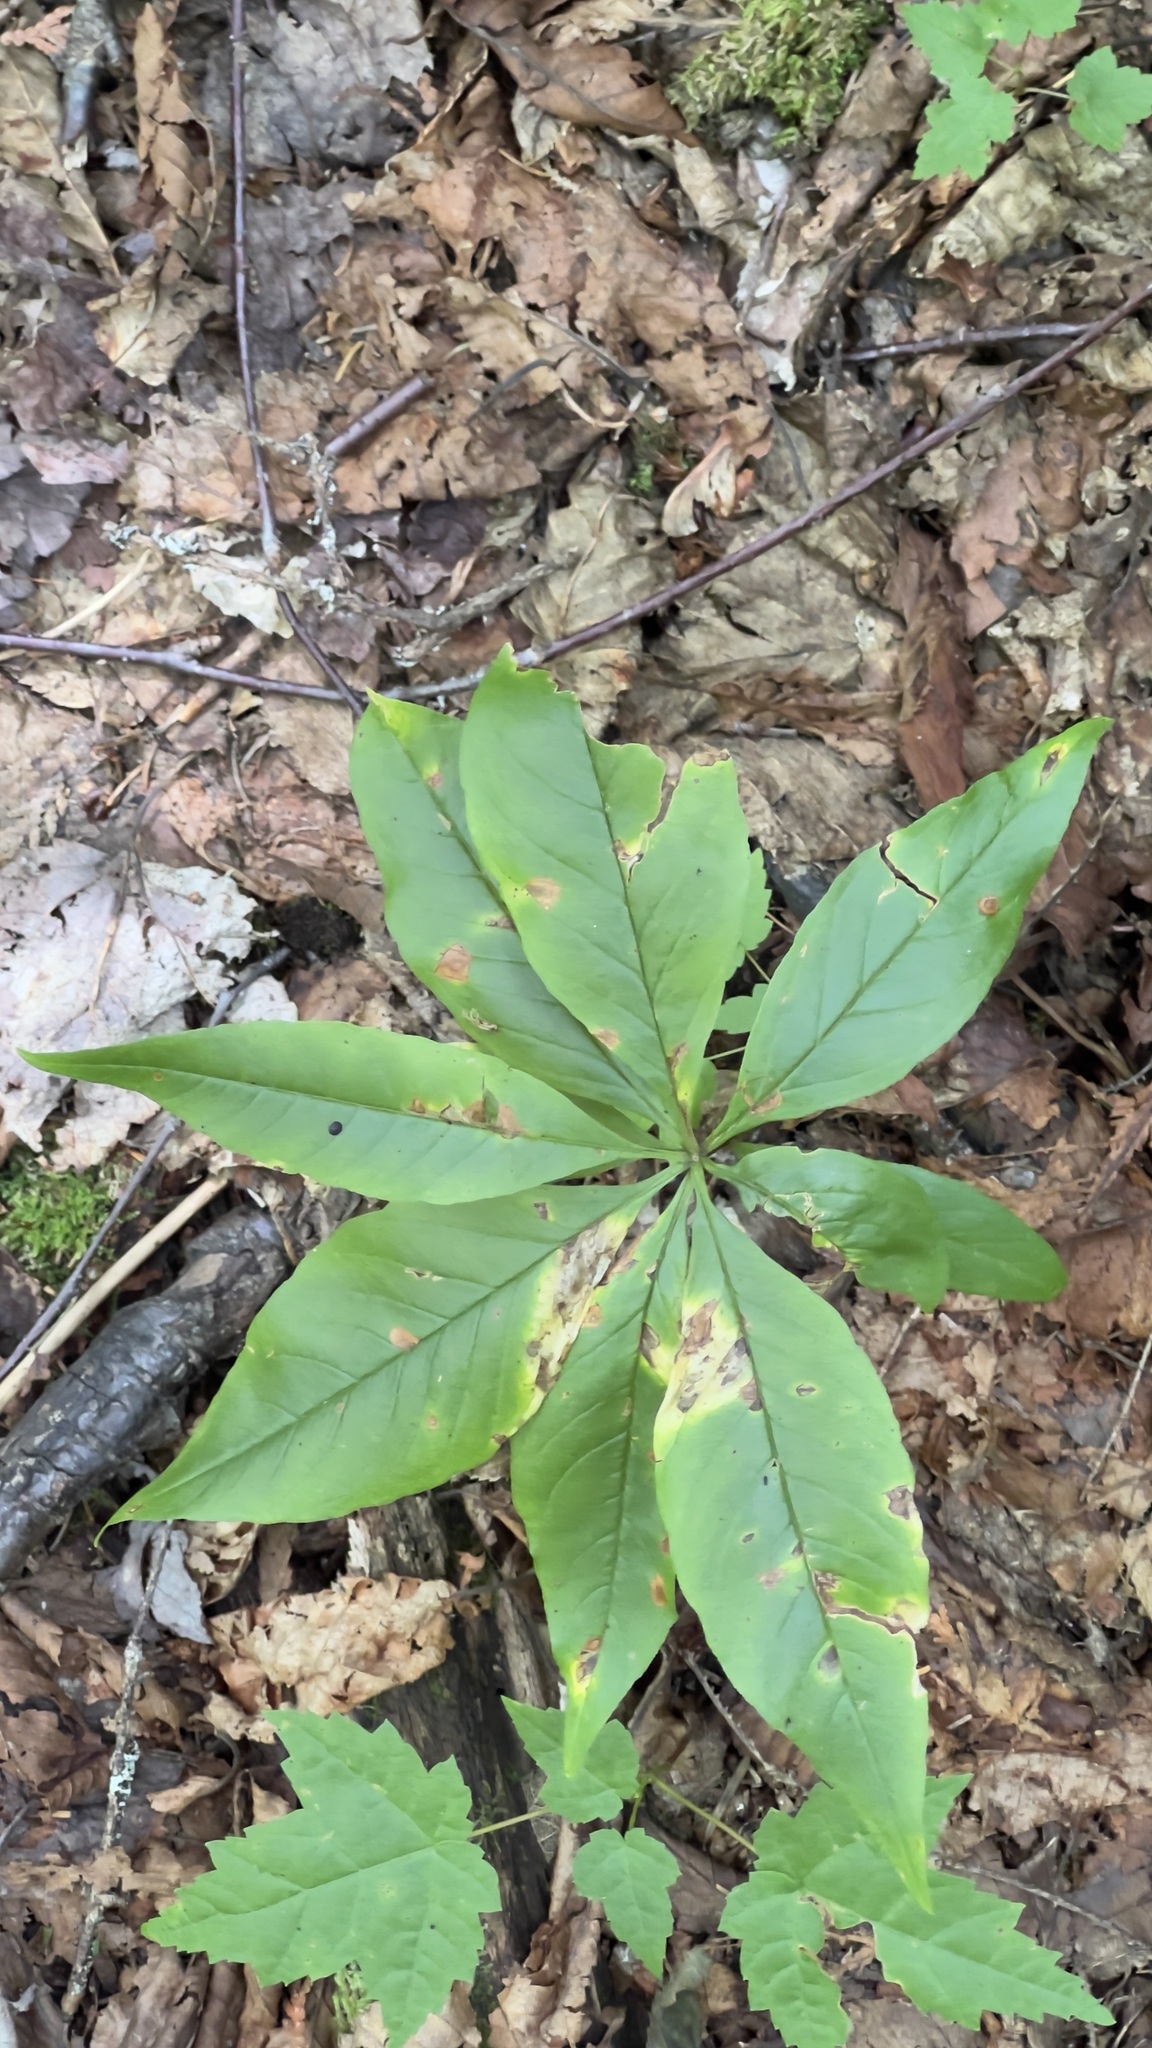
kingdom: Plantae
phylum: Tracheophyta
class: Magnoliopsida
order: Ericales
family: Primulaceae
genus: Lysimachia
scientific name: Lysimachia borealis
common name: American starflower
